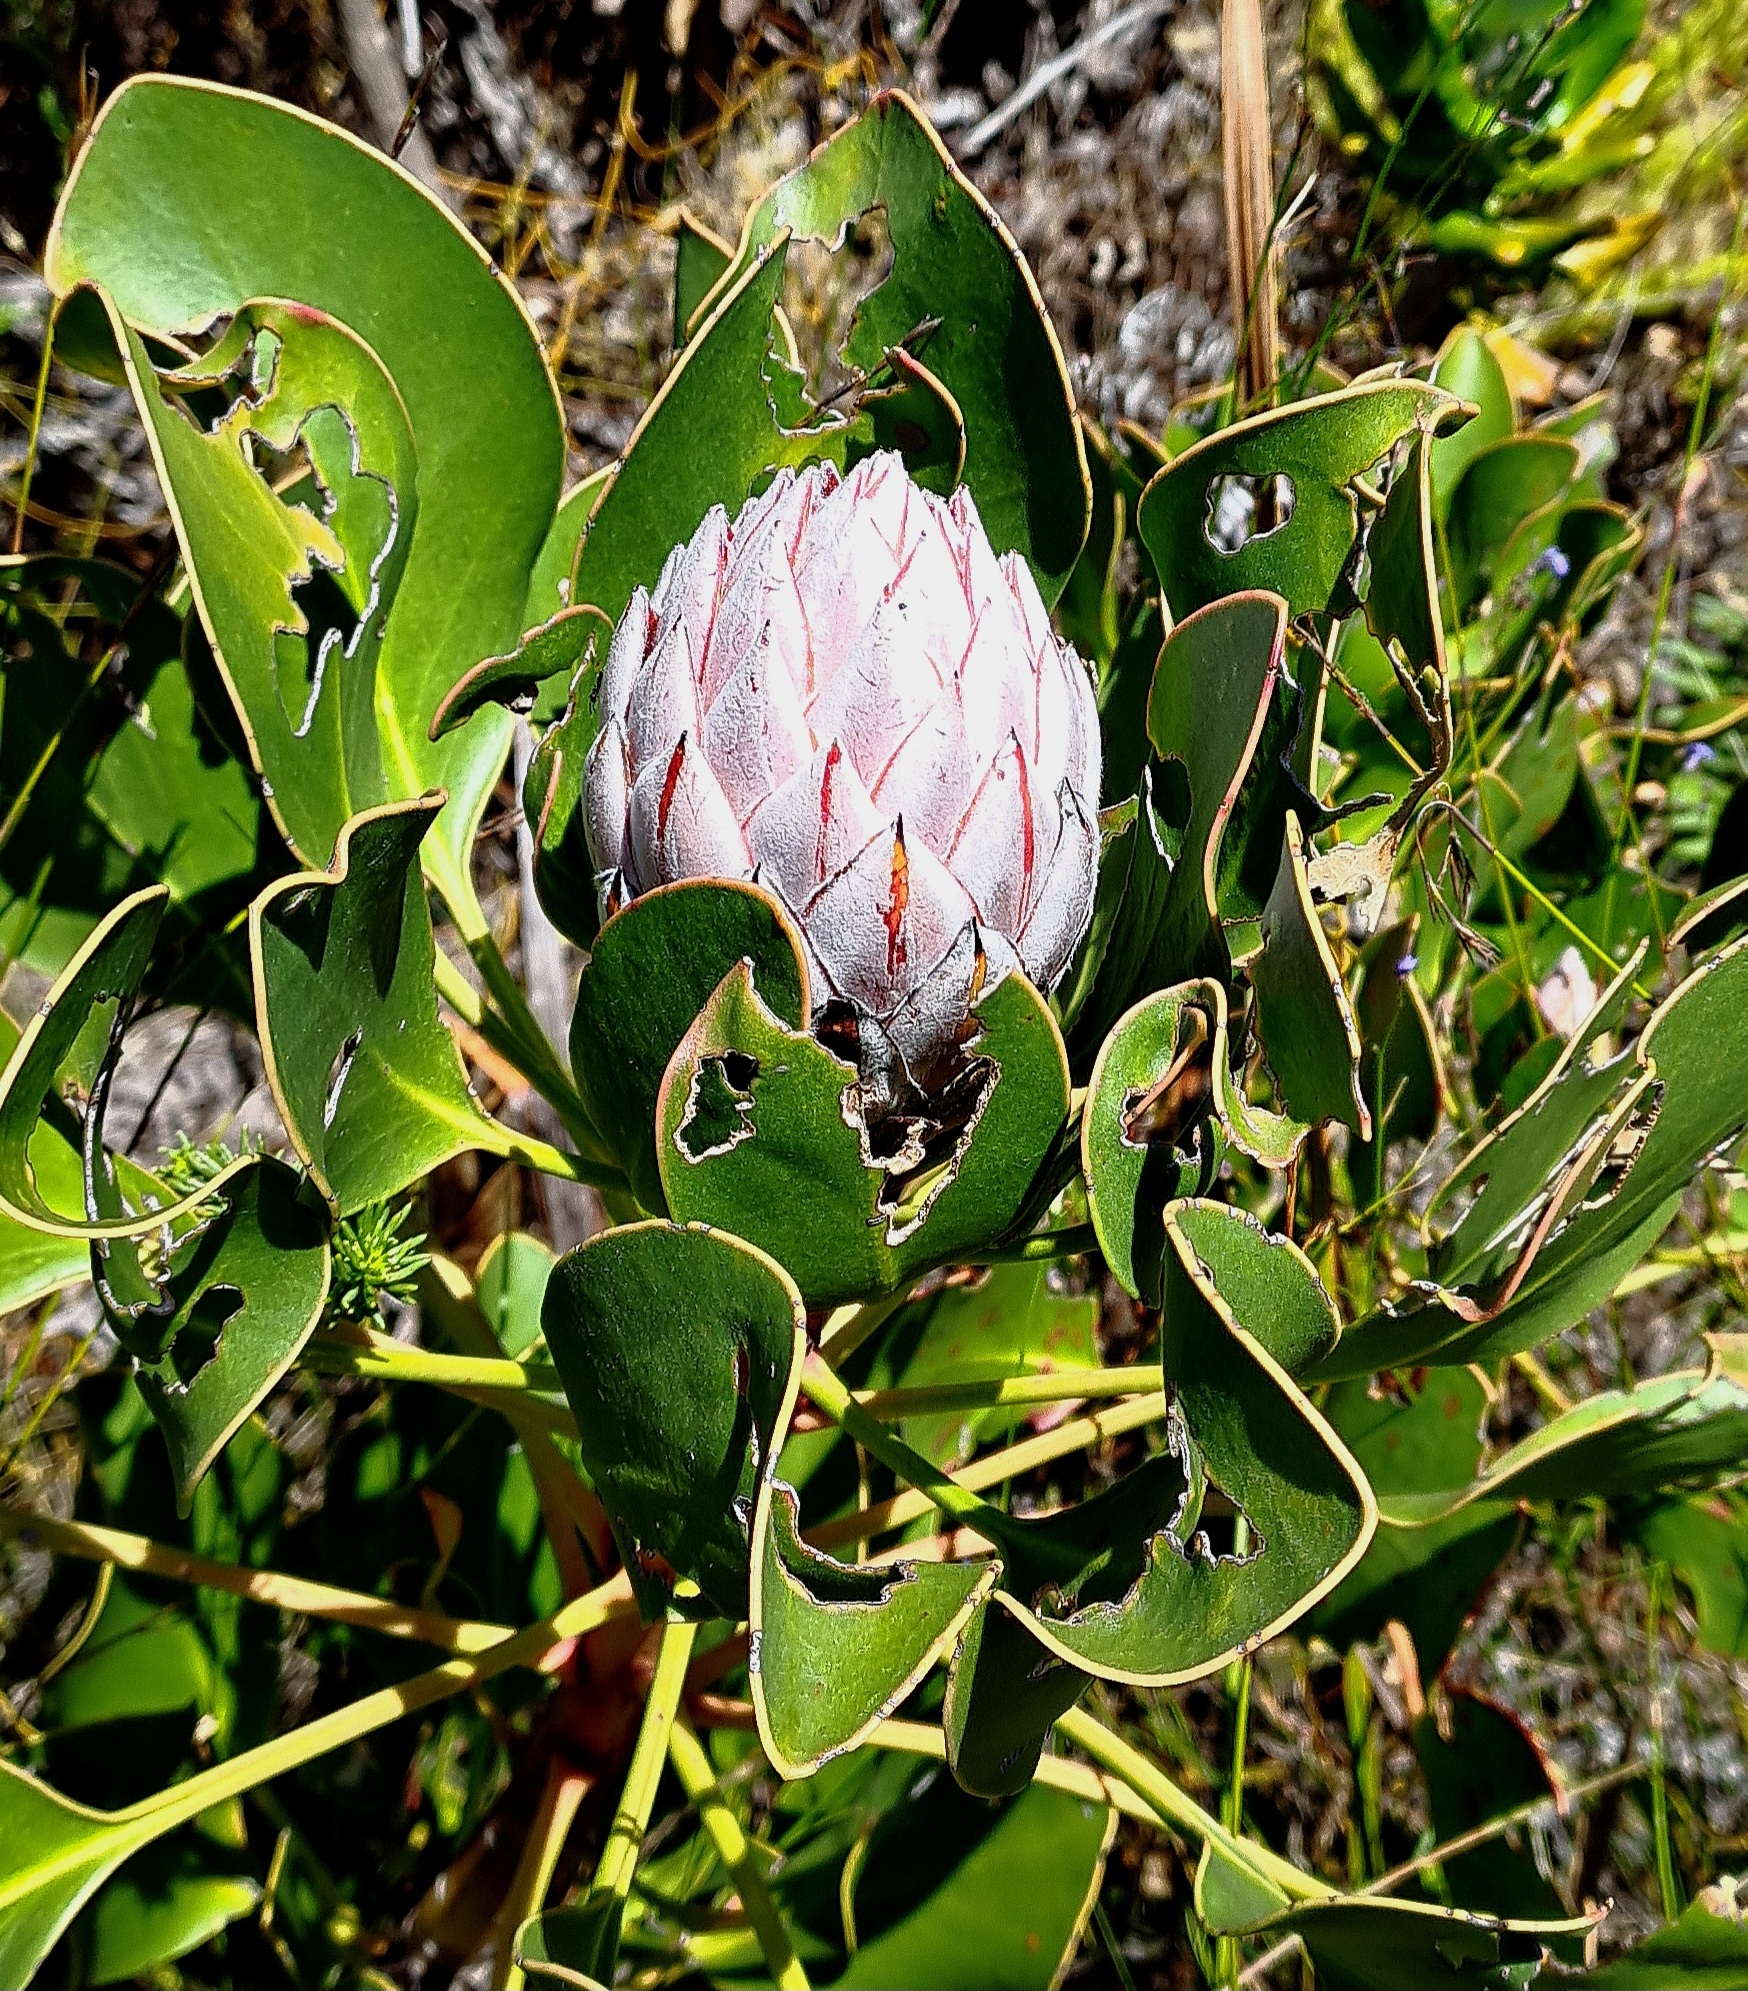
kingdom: Plantae
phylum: Tracheophyta
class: Magnoliopsida
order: Proteales
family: Proteaceae
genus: Protea
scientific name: Protea cynaroides
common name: King protea
